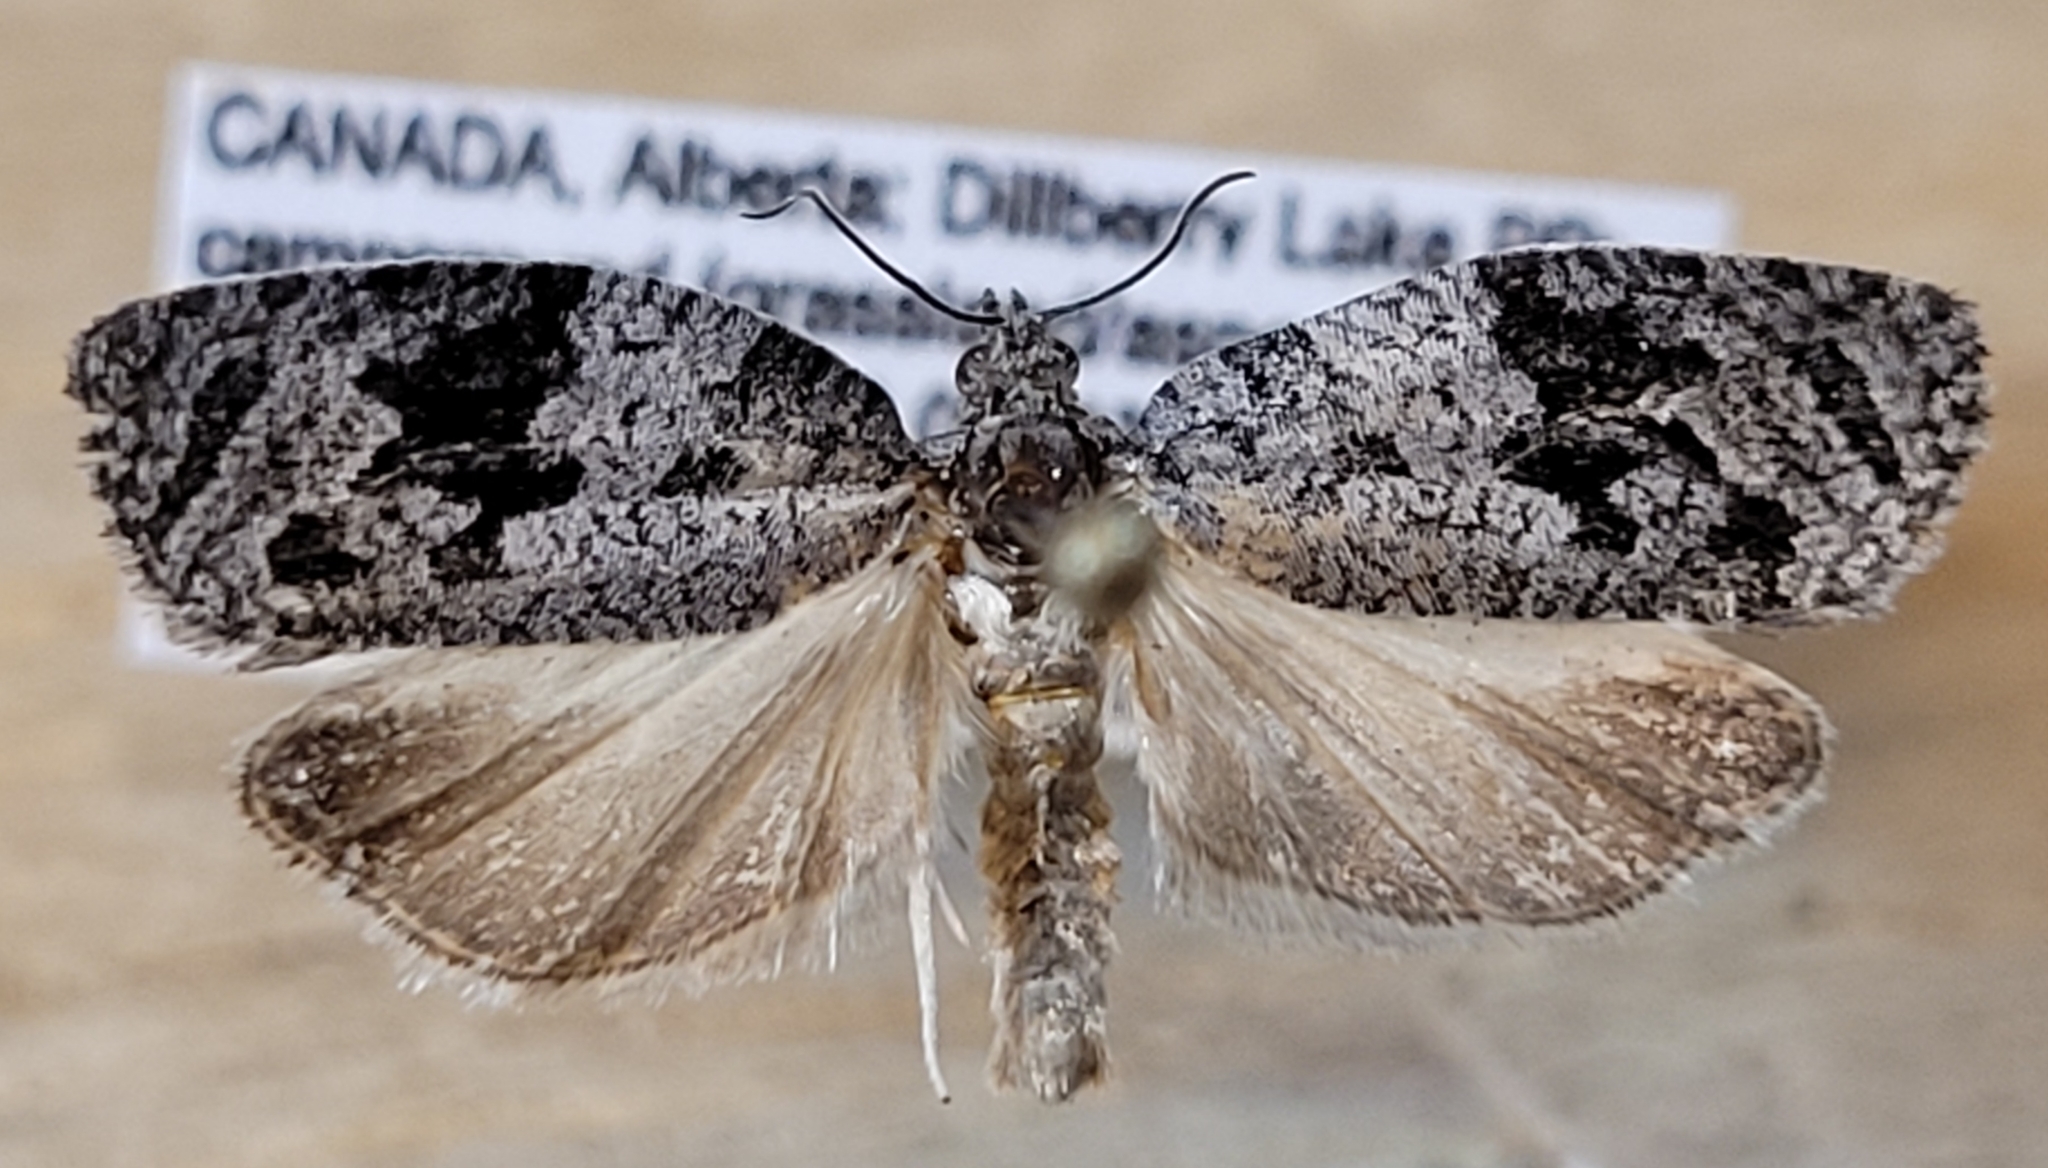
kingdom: Animalia
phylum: Arthropoda
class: Insecta
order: Lepidoptera
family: Tortricidae
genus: Apotomis
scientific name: Apotomis removana
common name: Green aspen leafroller
